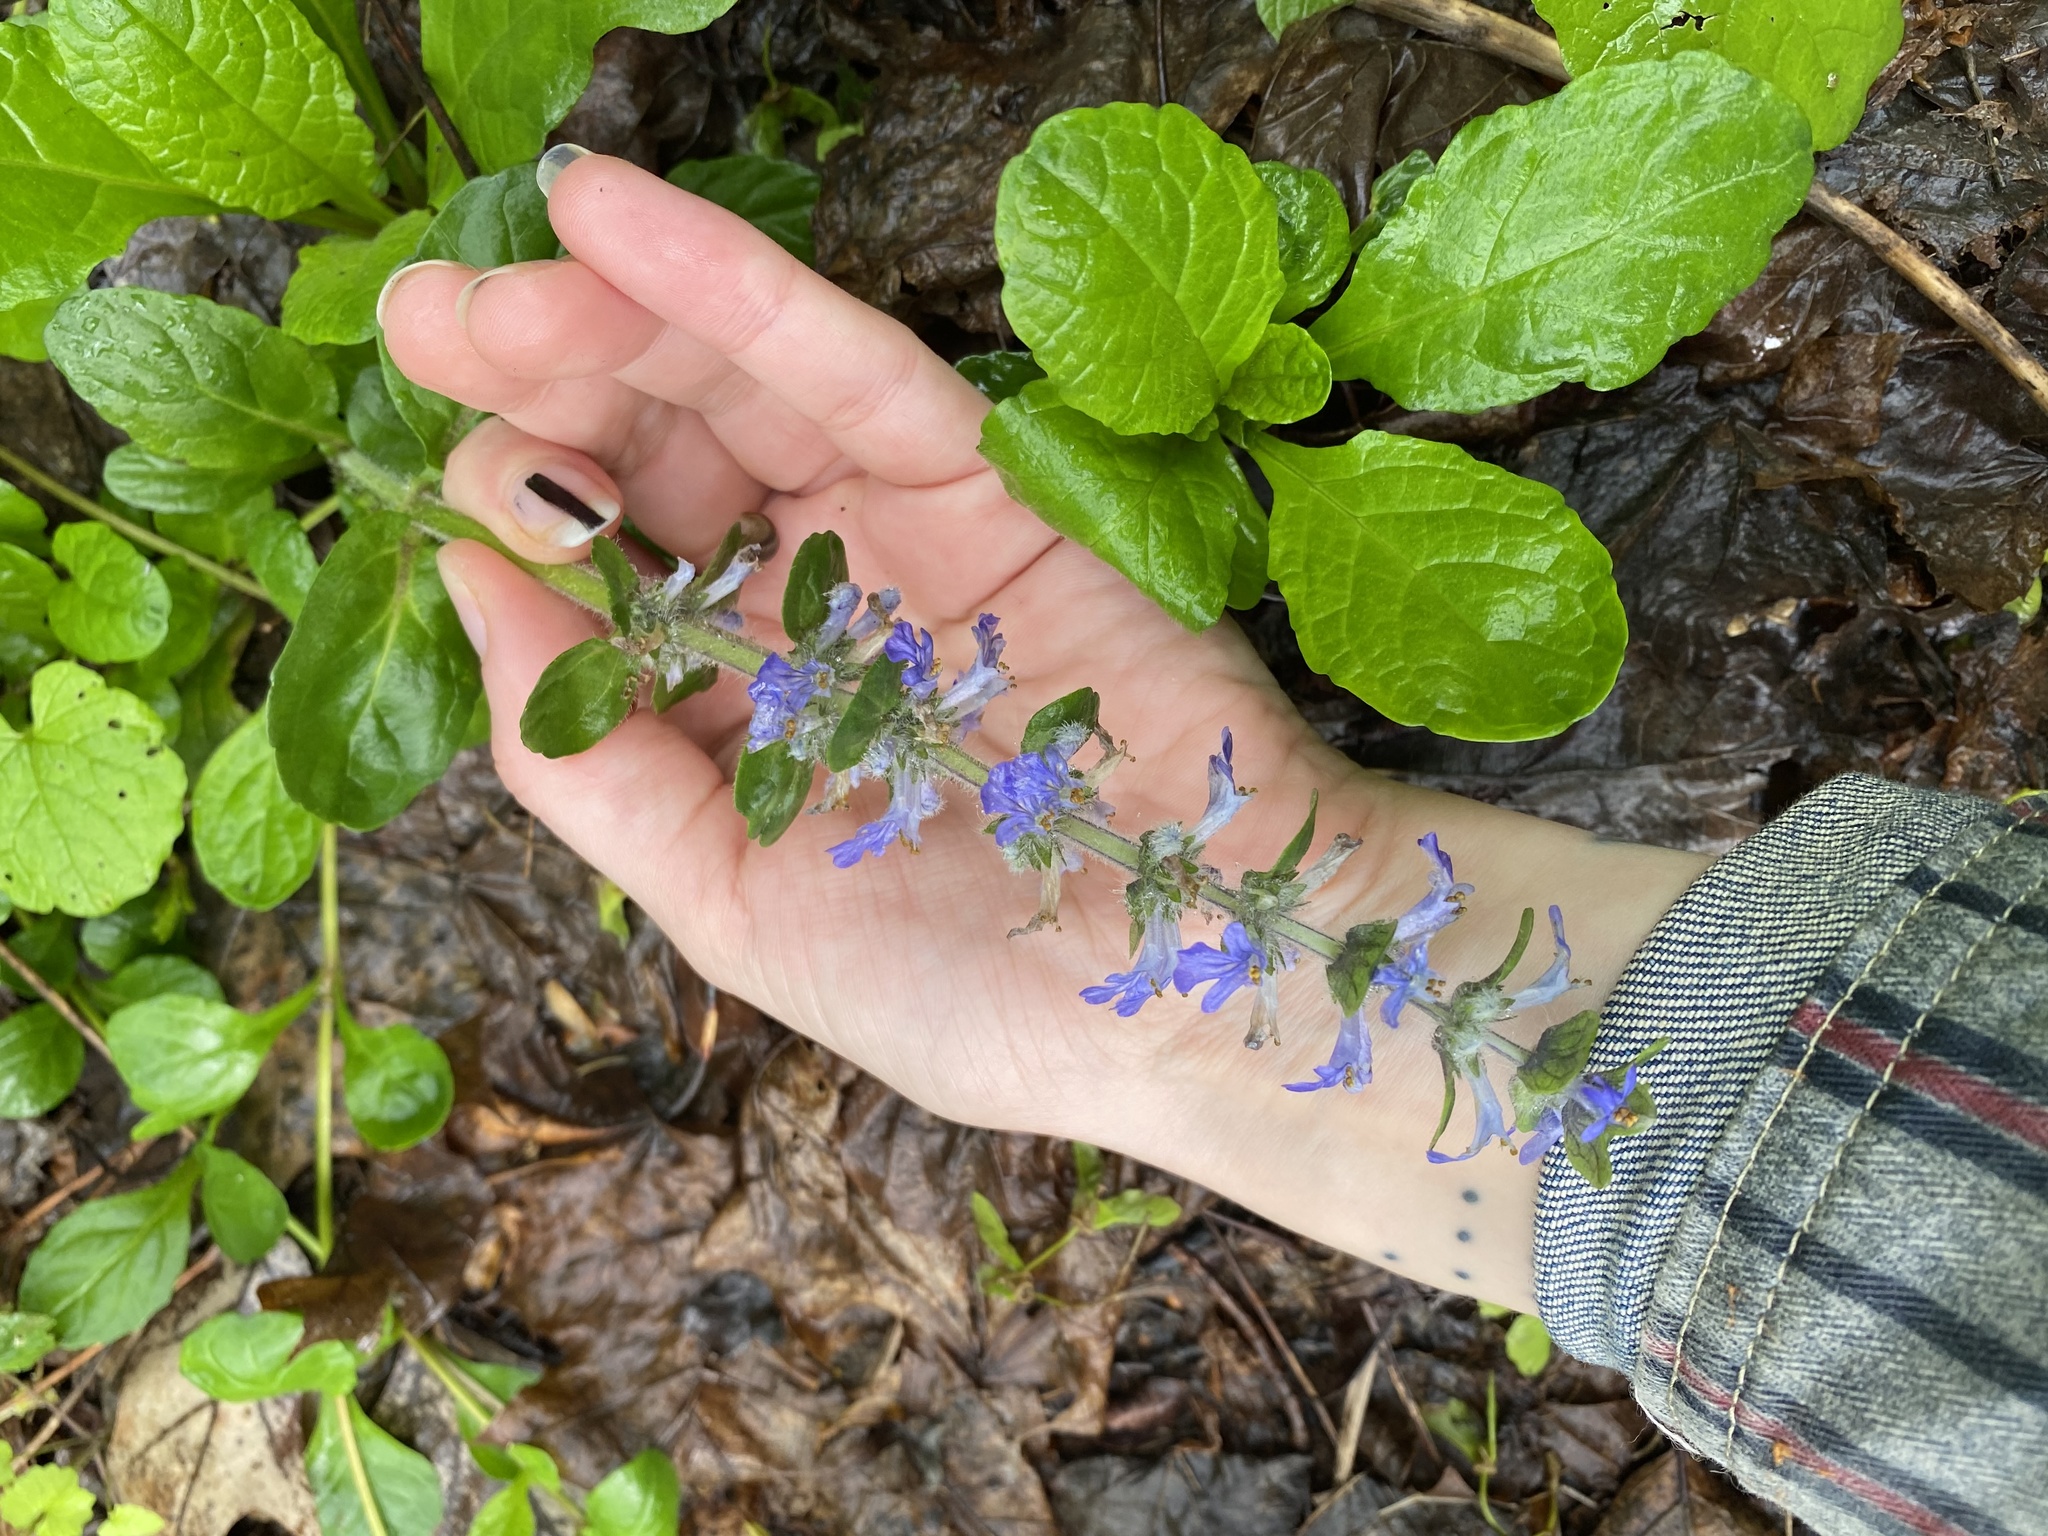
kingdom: Plantae
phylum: Tracheophyta
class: Magnoliopsida
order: Lamiales
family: Lamiaceae
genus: Ajuga
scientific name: Ajuga reptans
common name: Bugle
